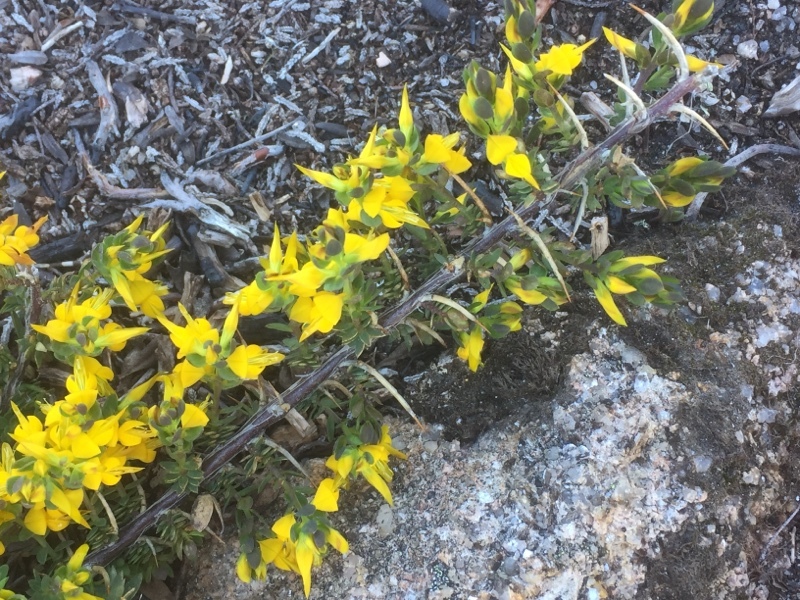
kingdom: Plantae
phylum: Tracheophyta
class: Magnoliopsida
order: Fabales
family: Fabaceae
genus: Genista
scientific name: Genista anglica
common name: Petty whin
